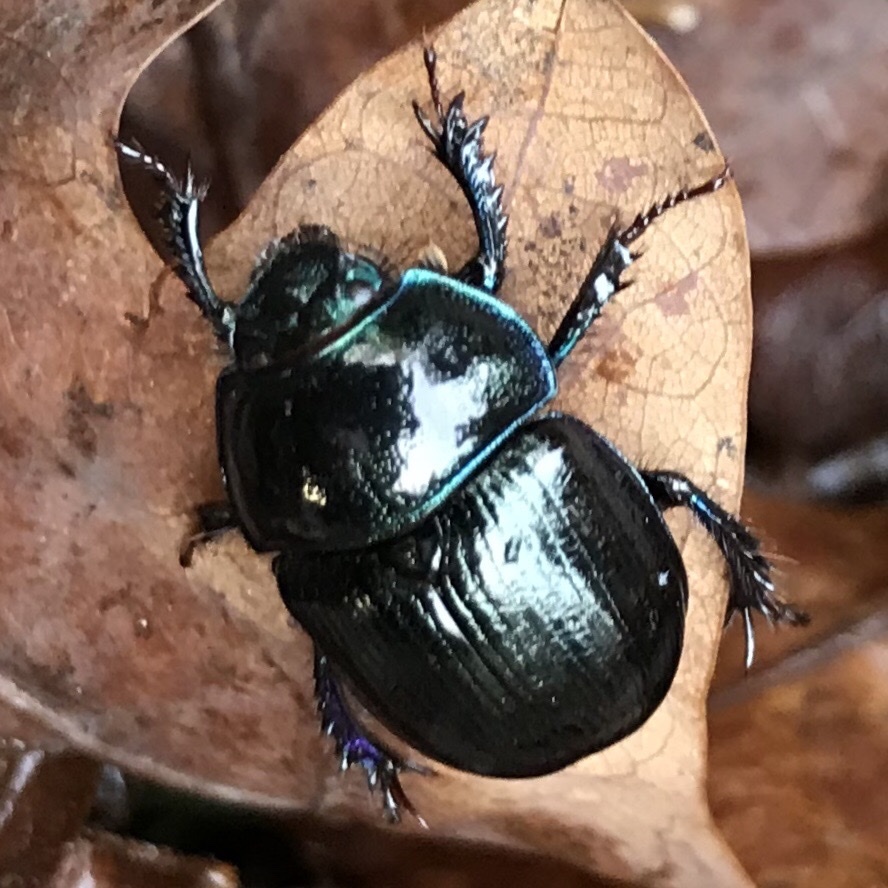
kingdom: Animalia
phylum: Arthropoda
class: Insecta
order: Coleoptera
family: Geotrupidae
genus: Anoplotrupes
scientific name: Anoplotrupes stercorosus
